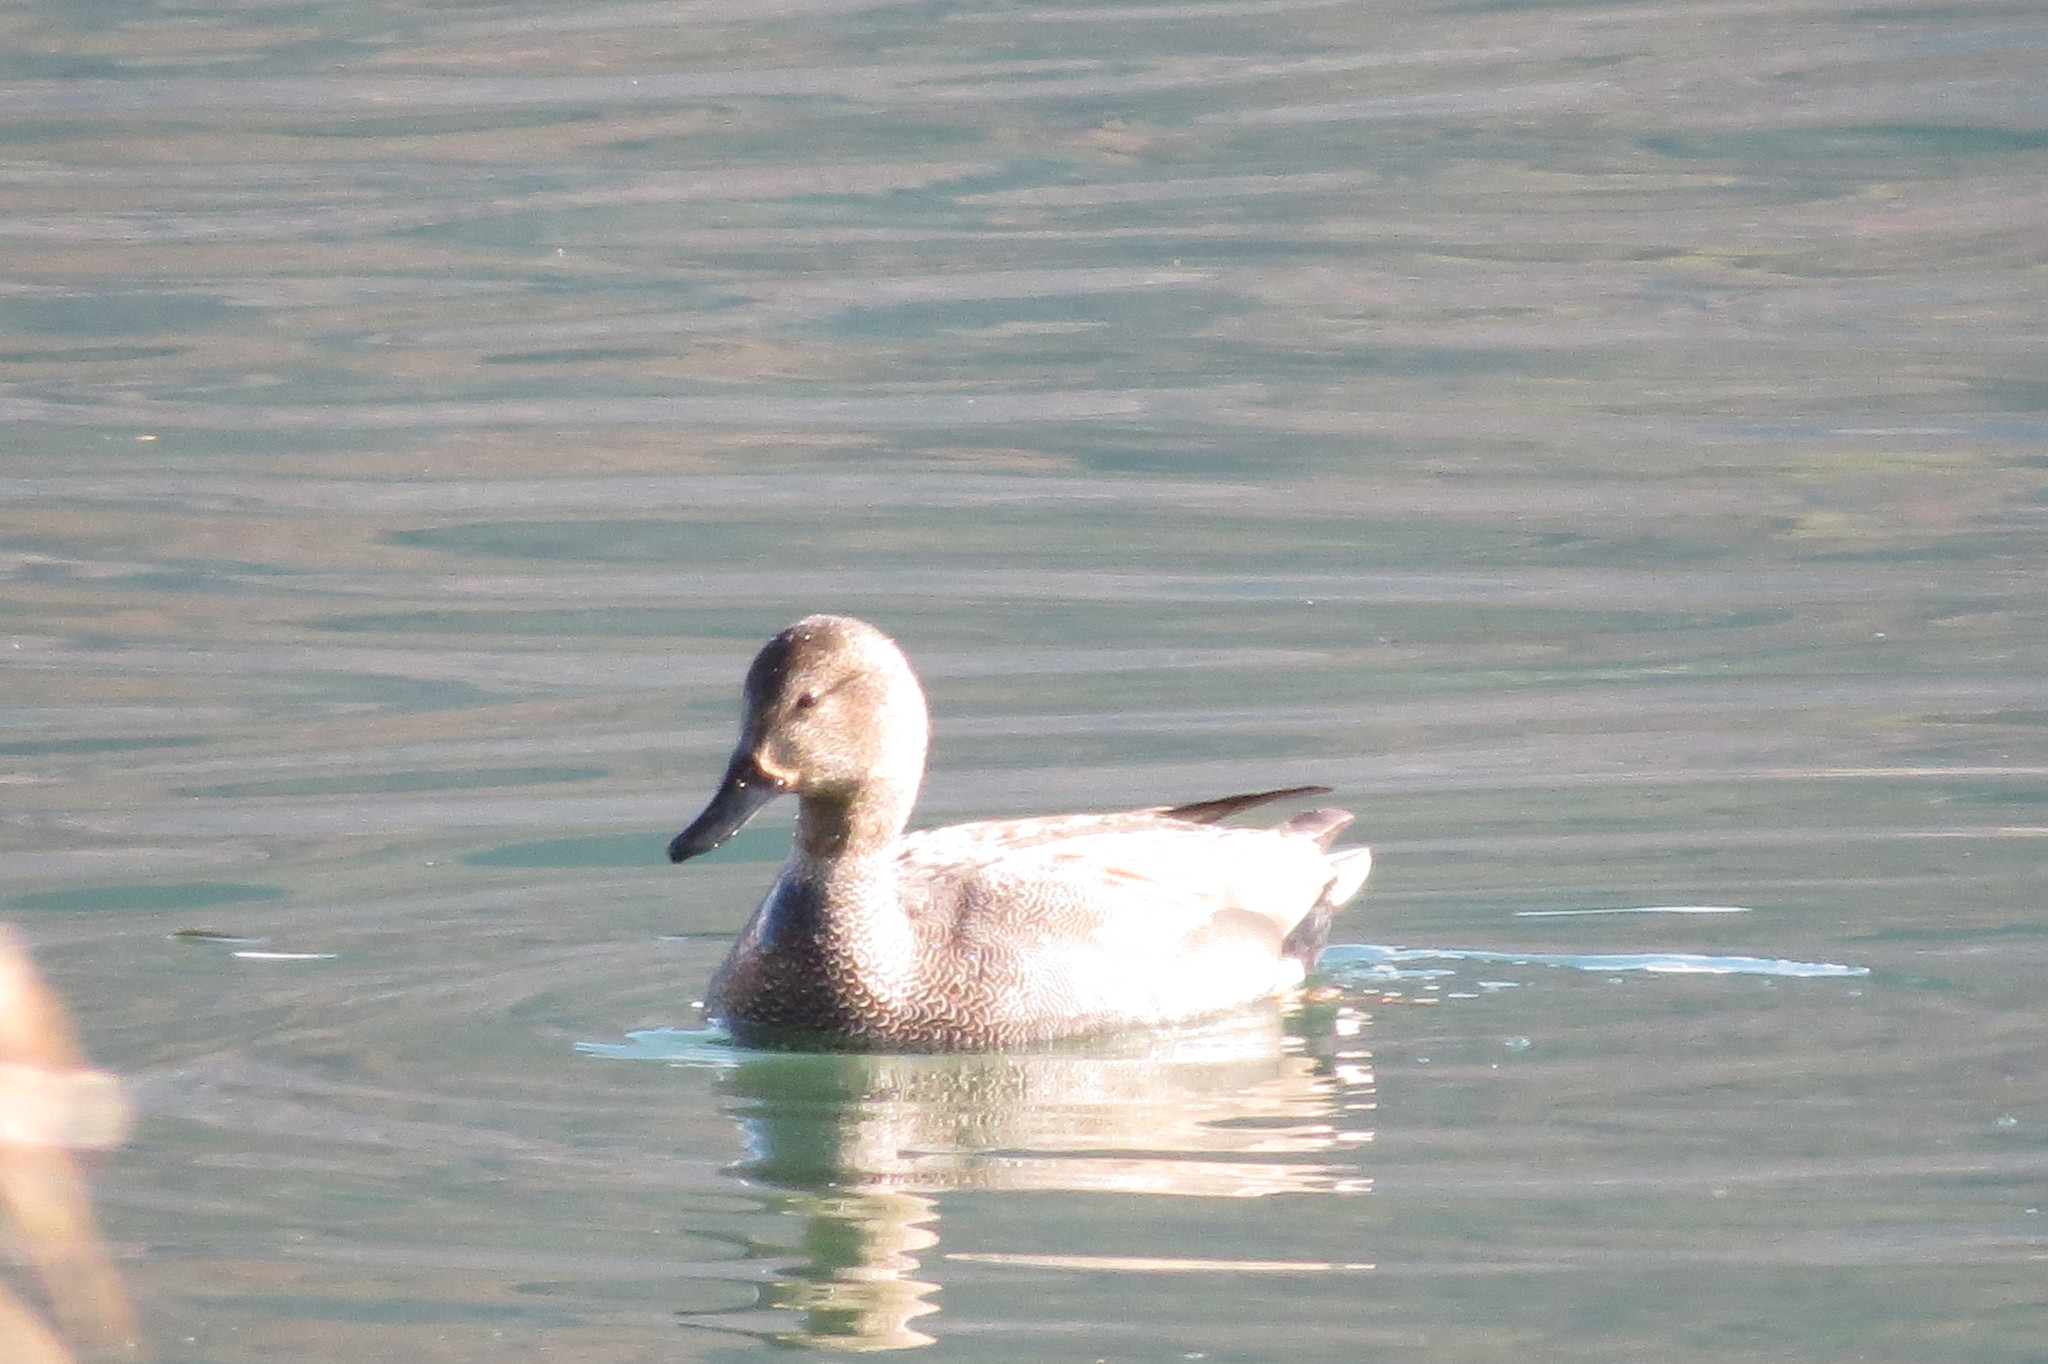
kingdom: Animalia
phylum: Chordata
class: Aves
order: Anseriformes
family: Anatidae
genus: Mareca
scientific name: Mareca strepera
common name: Gadwall
